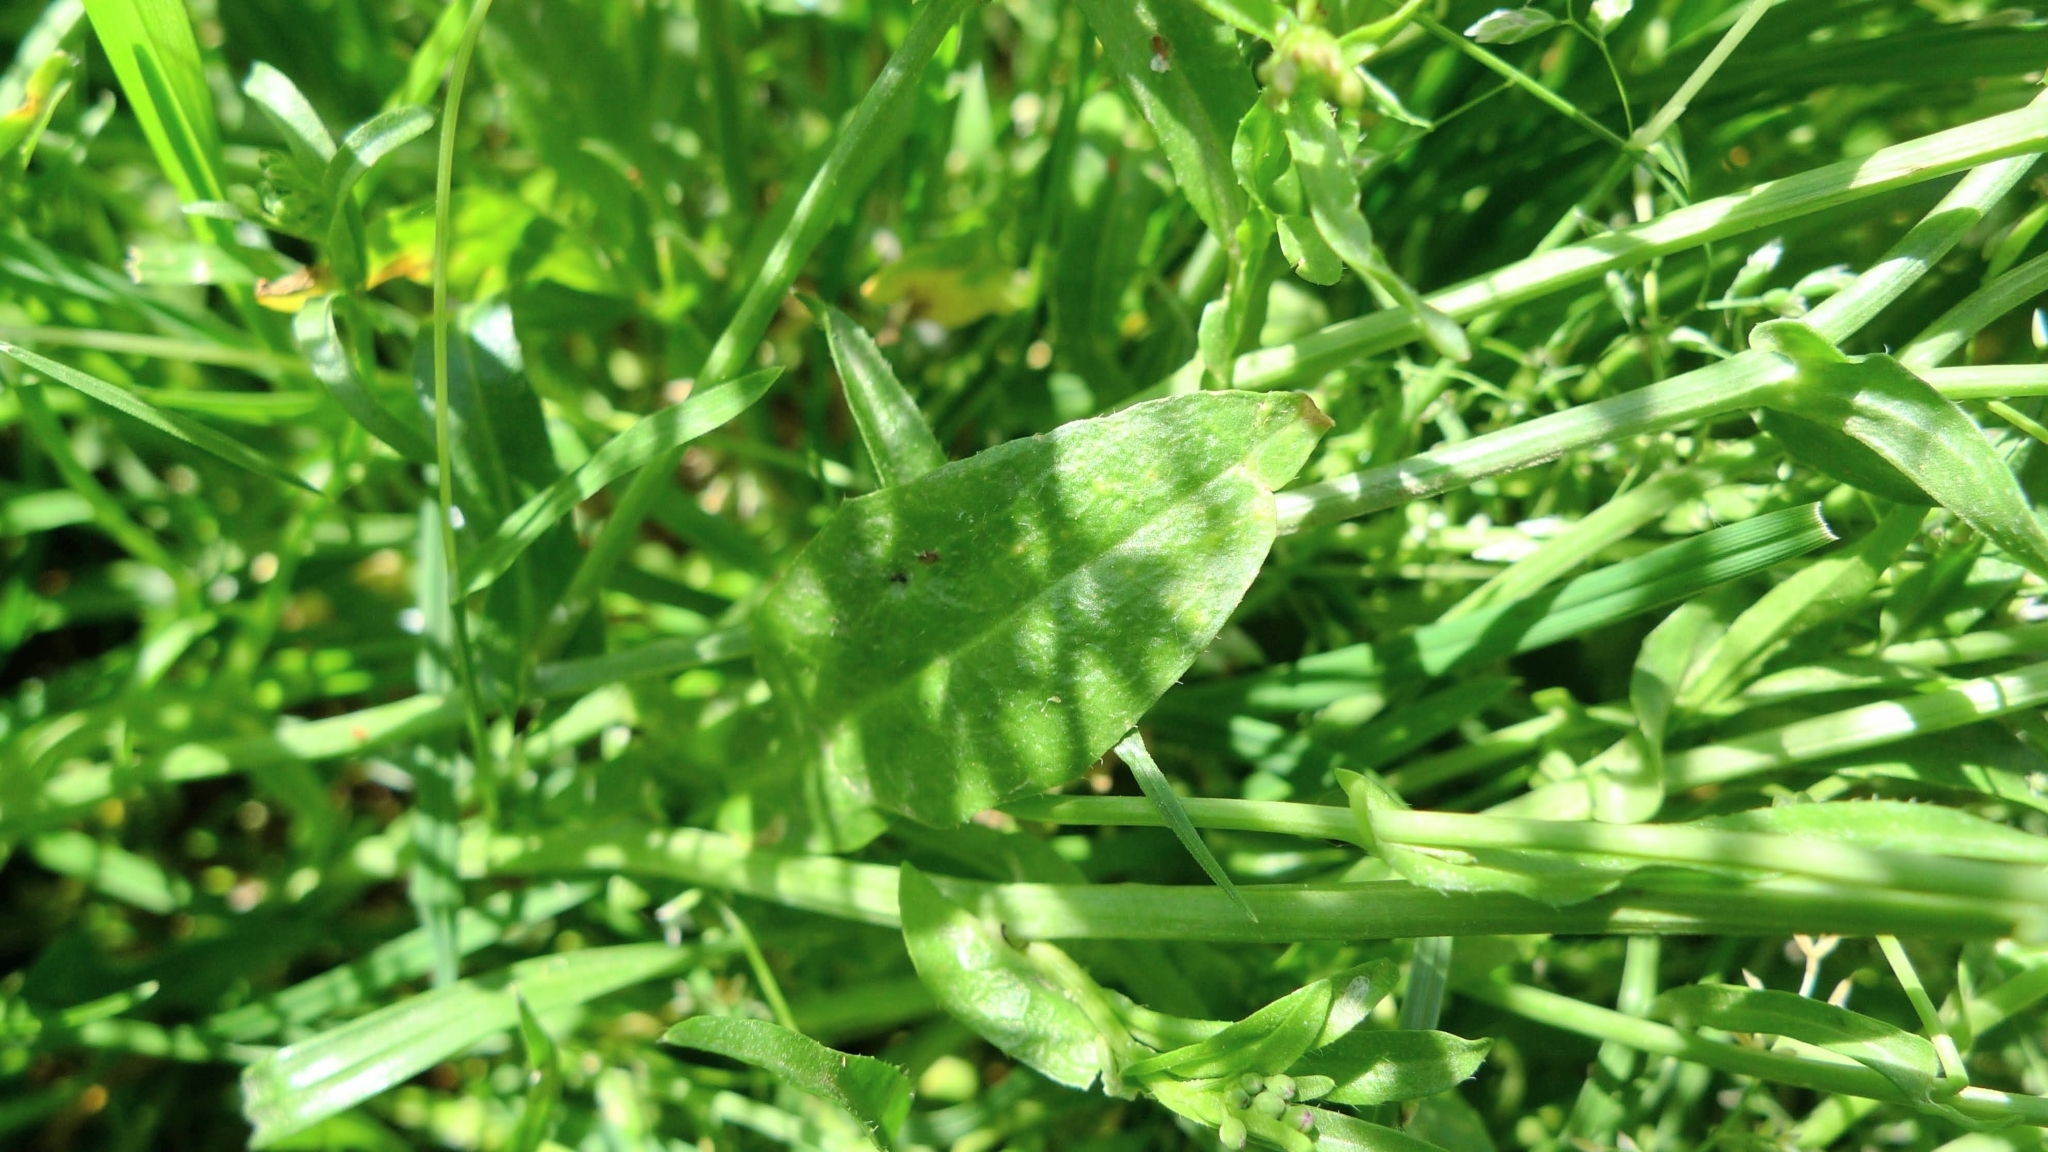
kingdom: Plantae
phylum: Tracheophyta
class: Magnoliopsida
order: Brassicales
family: Brassicaceae
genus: Capsella
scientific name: Capsella bursa-pastoris
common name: Shepherd's purse
